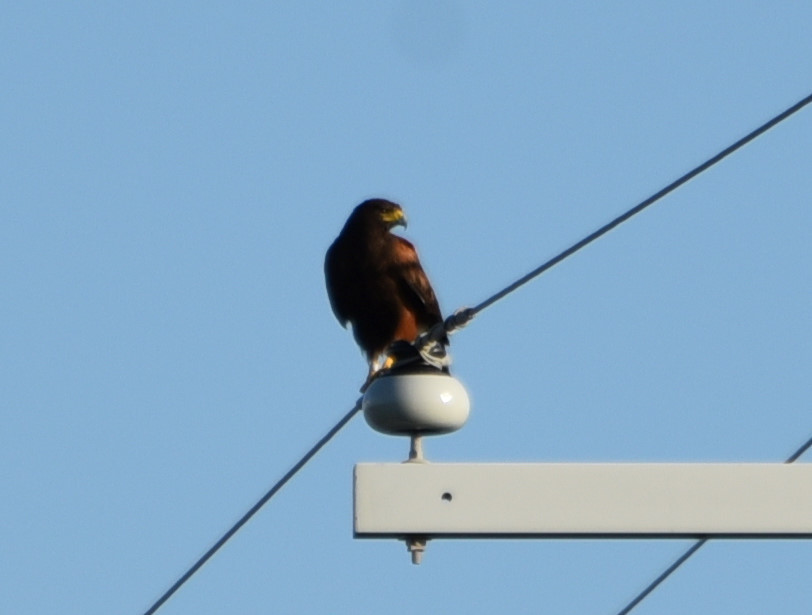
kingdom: Animalia
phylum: Chordata
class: Aves
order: Accipitriformes
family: Accipitridae
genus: Parabuteo
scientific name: Parabuteo unicinctus
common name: Harris's hawk
